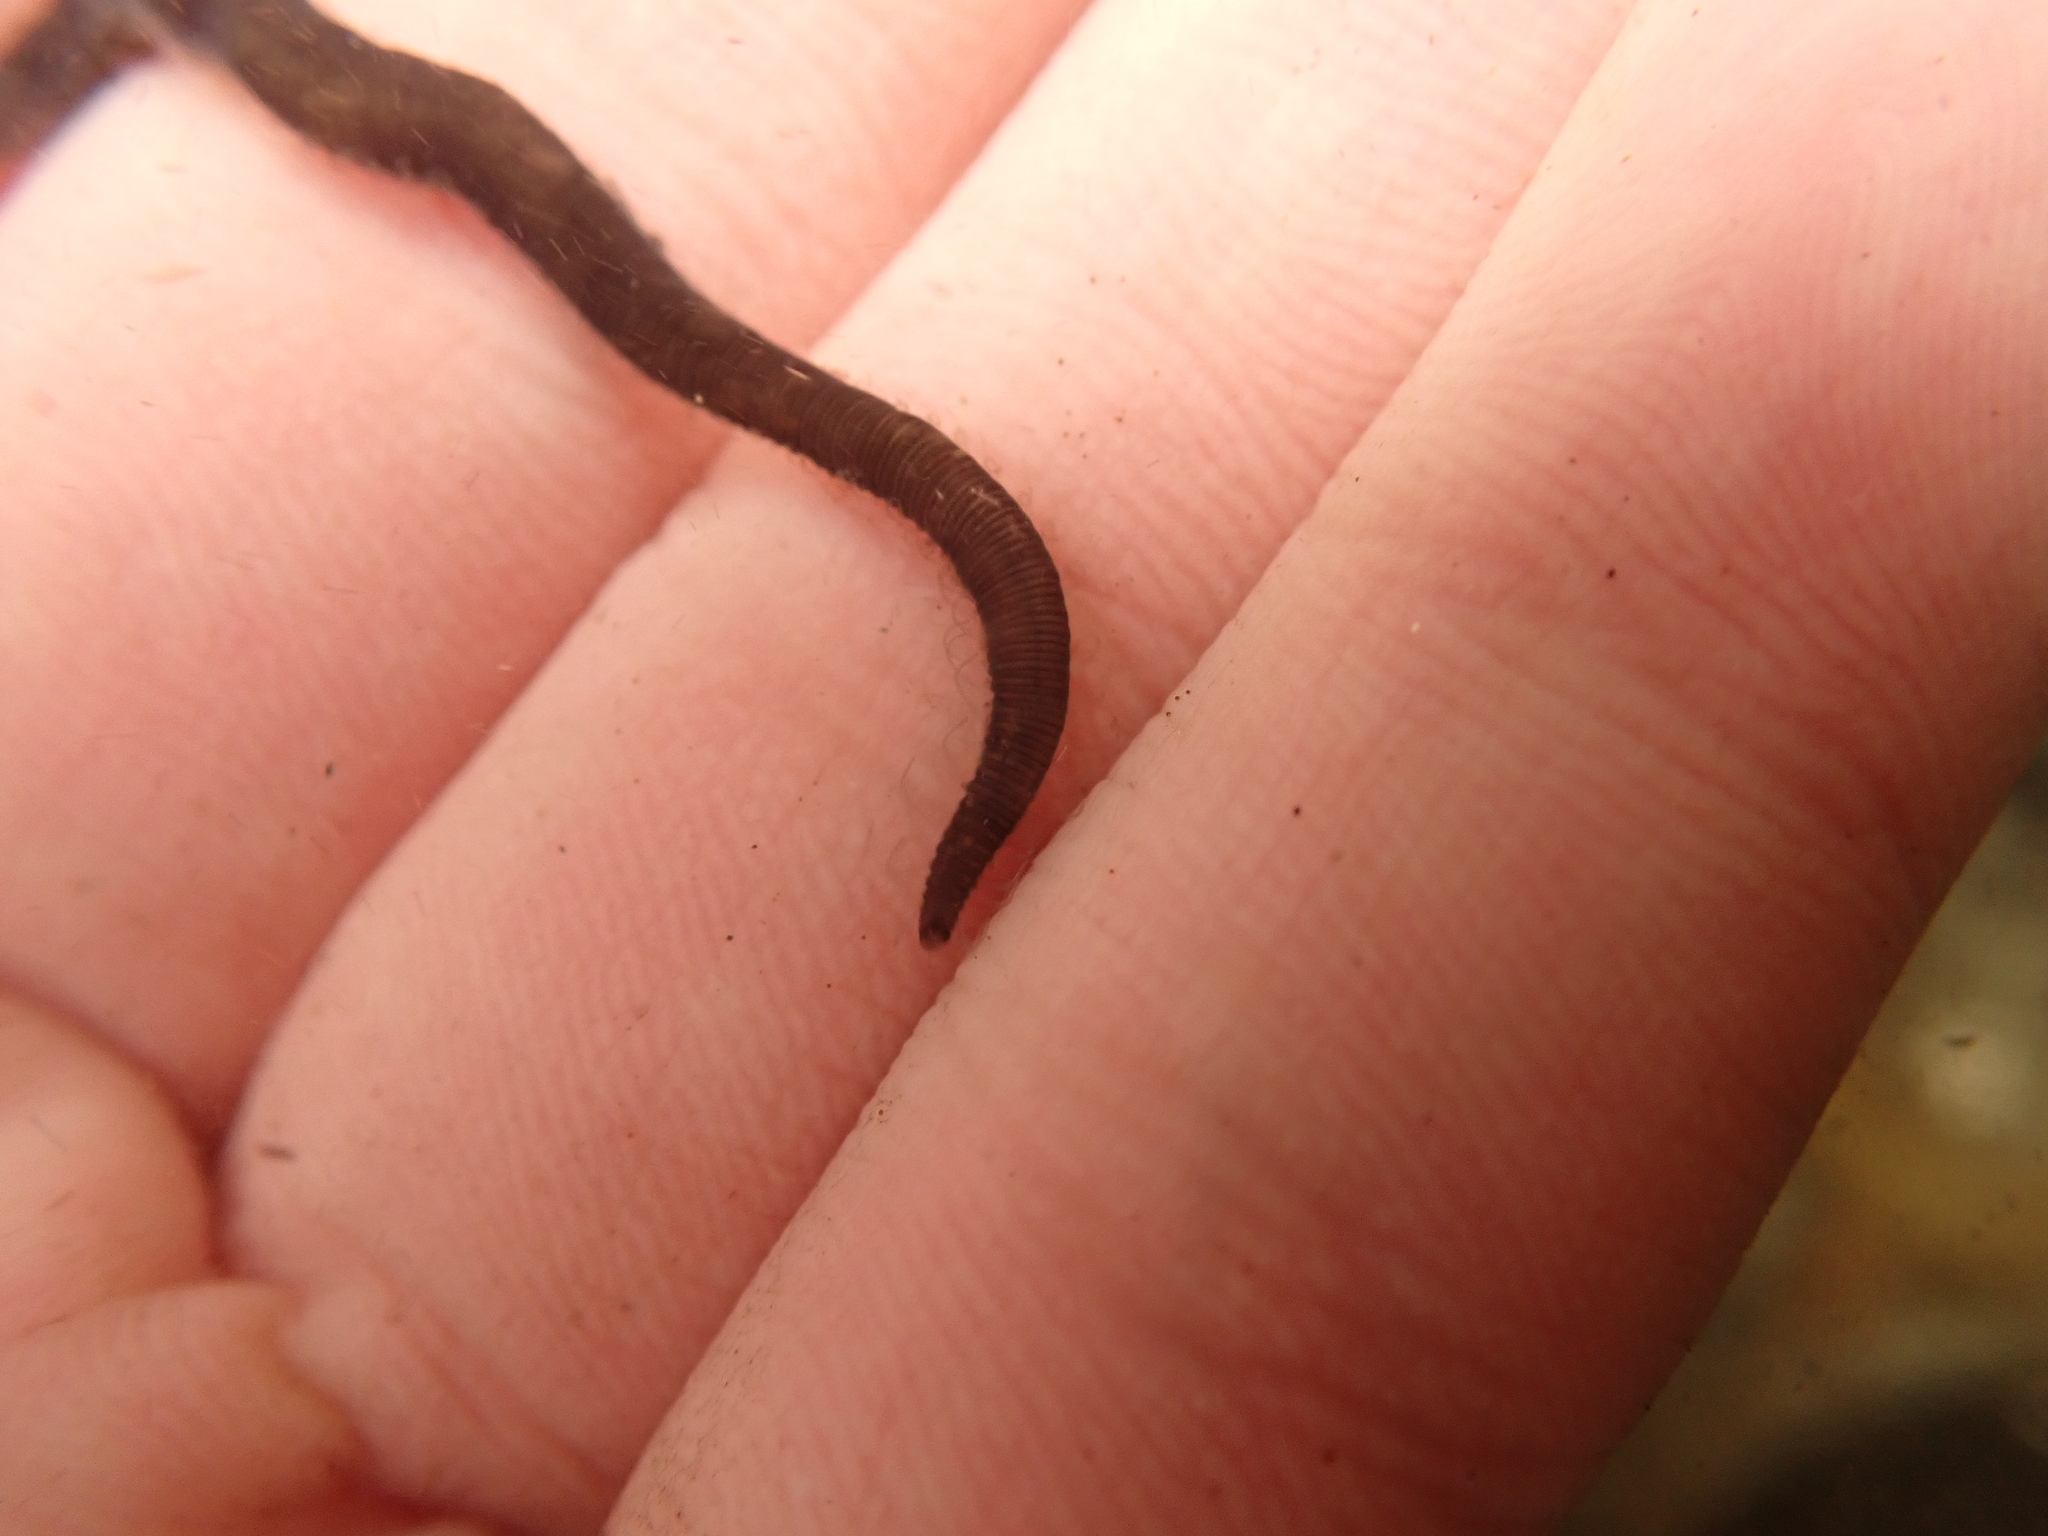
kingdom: Animalia
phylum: Annelida
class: Polychaeta
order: Phyllodocida
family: Syllidae
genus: Odontosyllis
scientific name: Odontosyllis polycera
